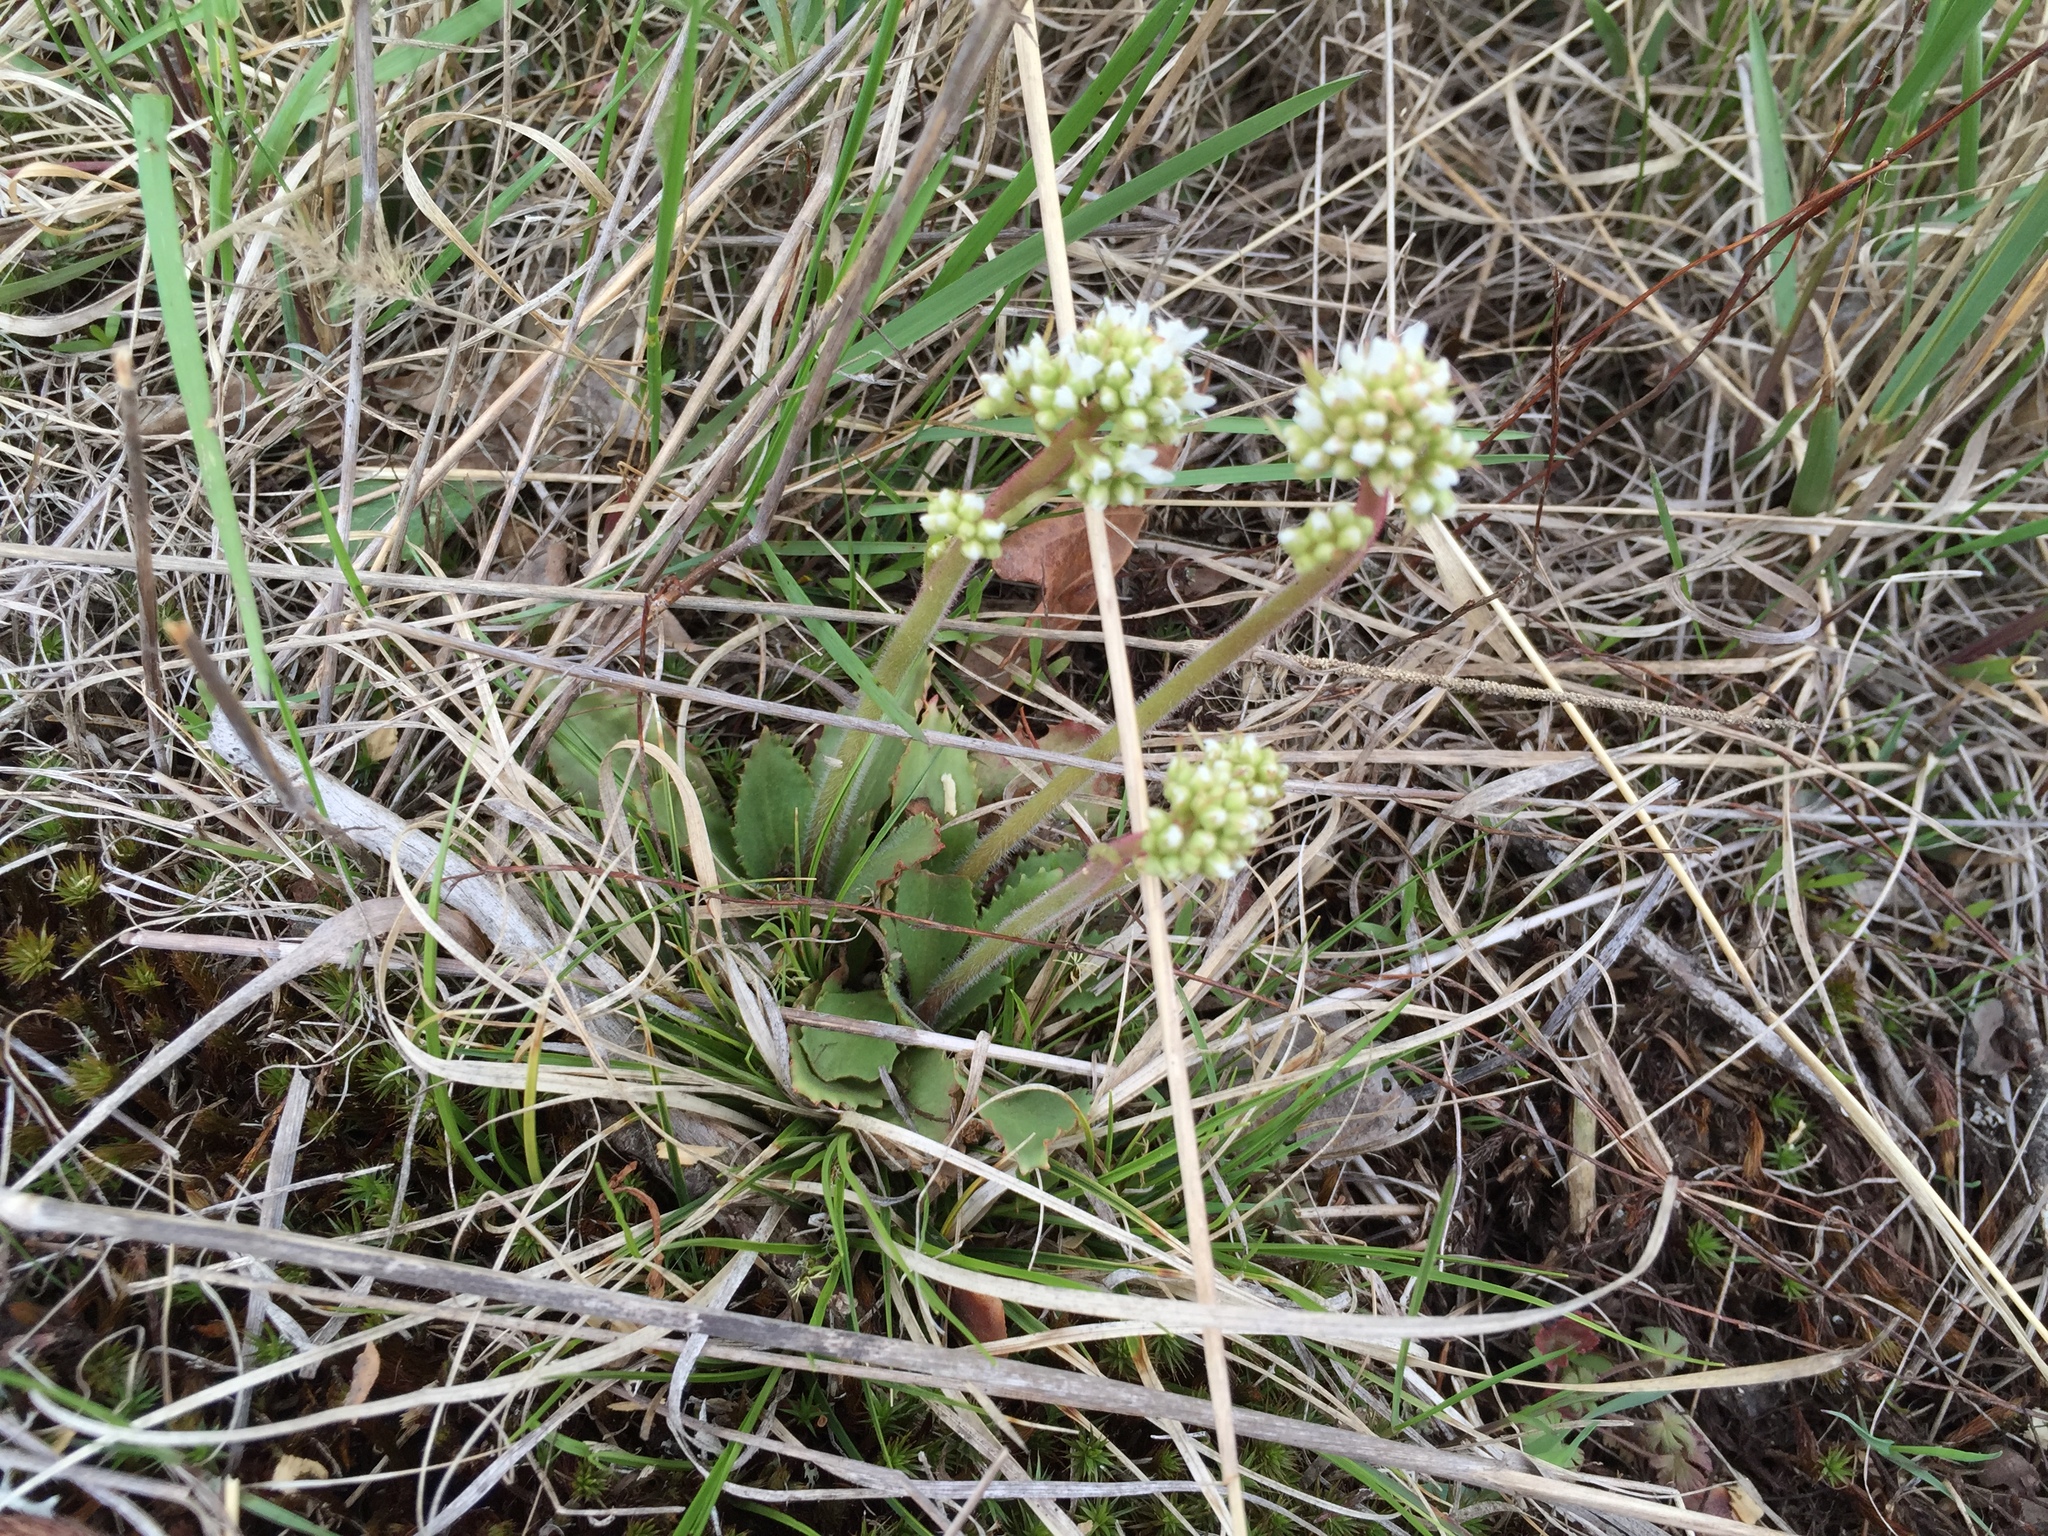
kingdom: Plantae
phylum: Tracheophyta
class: Magnoliopsida
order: Saxifragales
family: Saxifragaceae
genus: Micranthes
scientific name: Micranthes virginiensis
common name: Early saxifrage
